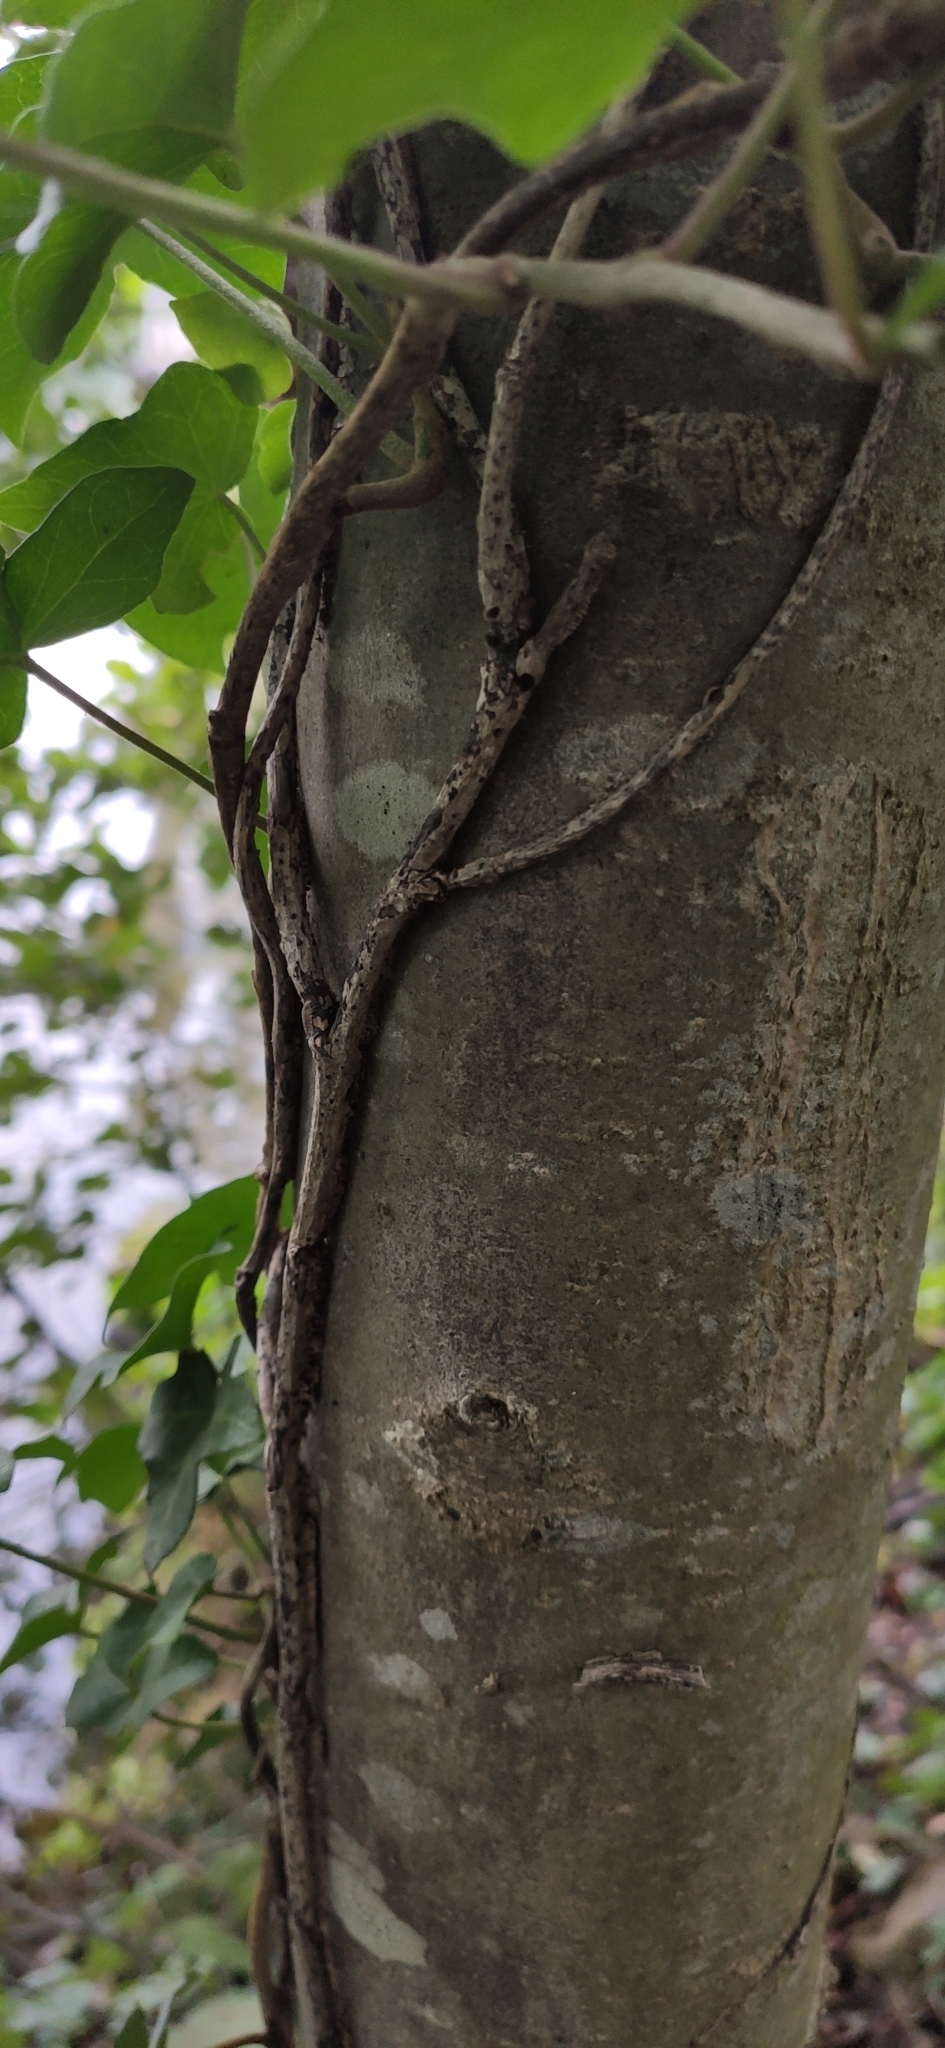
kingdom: Plantae
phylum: Tracheophyta
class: Magnoliopsida
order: Apiales
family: Araliaceae
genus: Hedera
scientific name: Hedera helix
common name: Ivy
